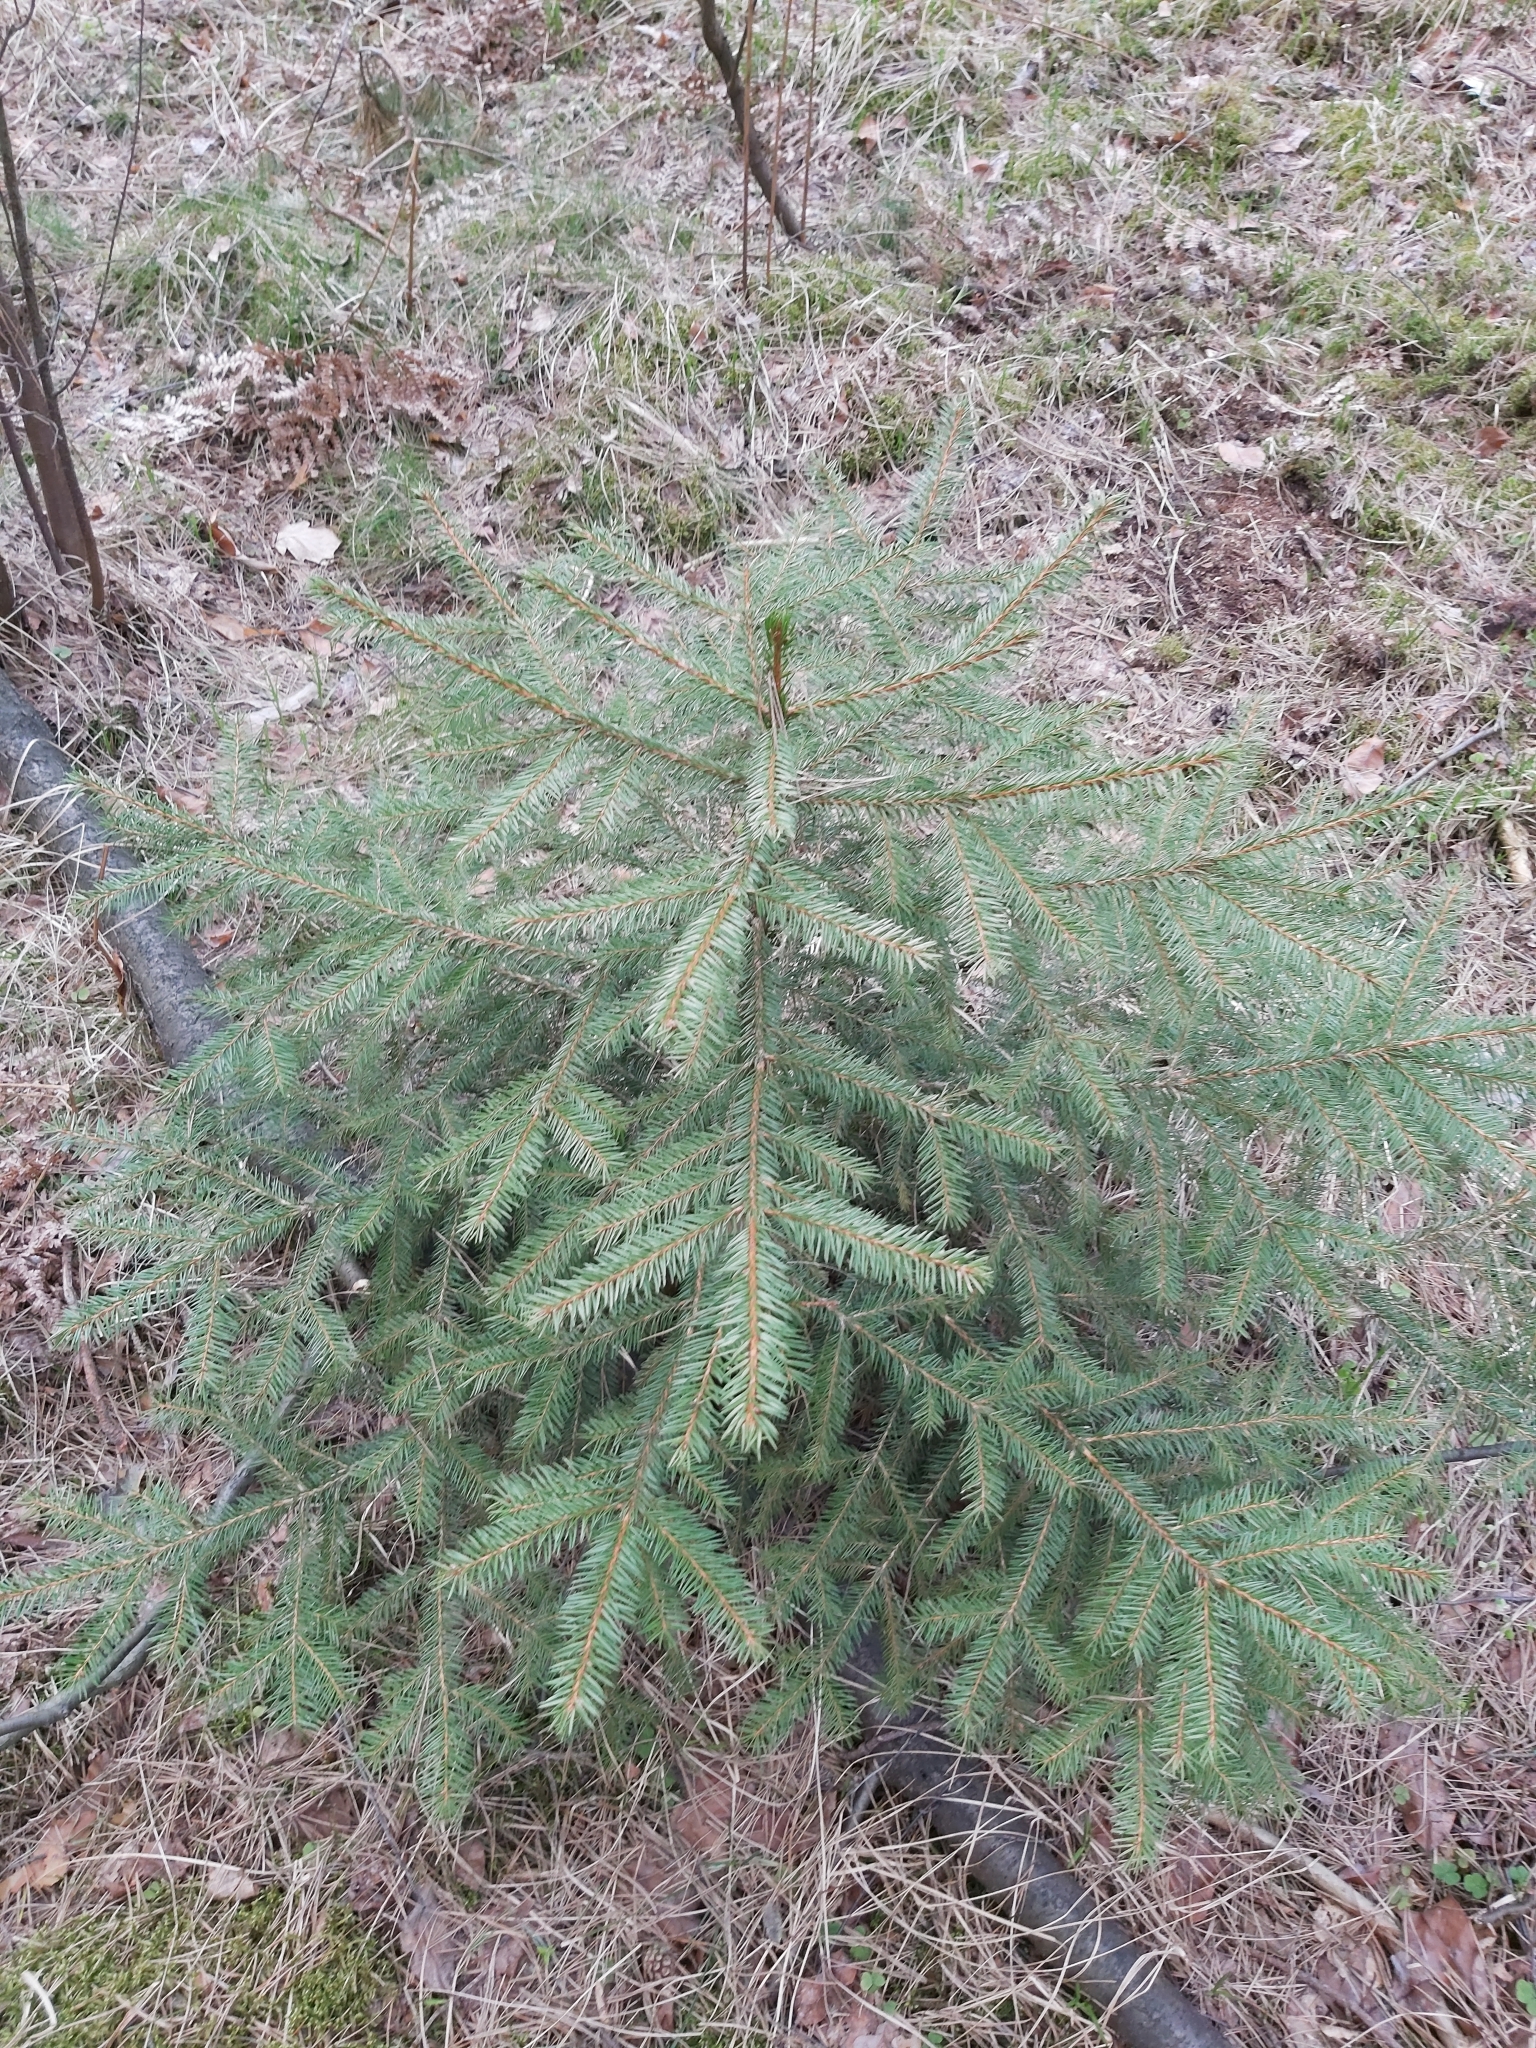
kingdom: Plantae
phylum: Tracheophyta
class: Pinopsida
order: Pinales
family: Pinaceae
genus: Picea
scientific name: Picea abies
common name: Norway spruce
